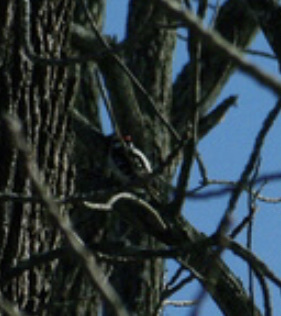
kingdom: Animalia
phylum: Chordata
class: Aves
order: Piciformes
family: Picidae
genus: Dryobates
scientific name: Dryobates pubescens
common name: Downy woodpecker
